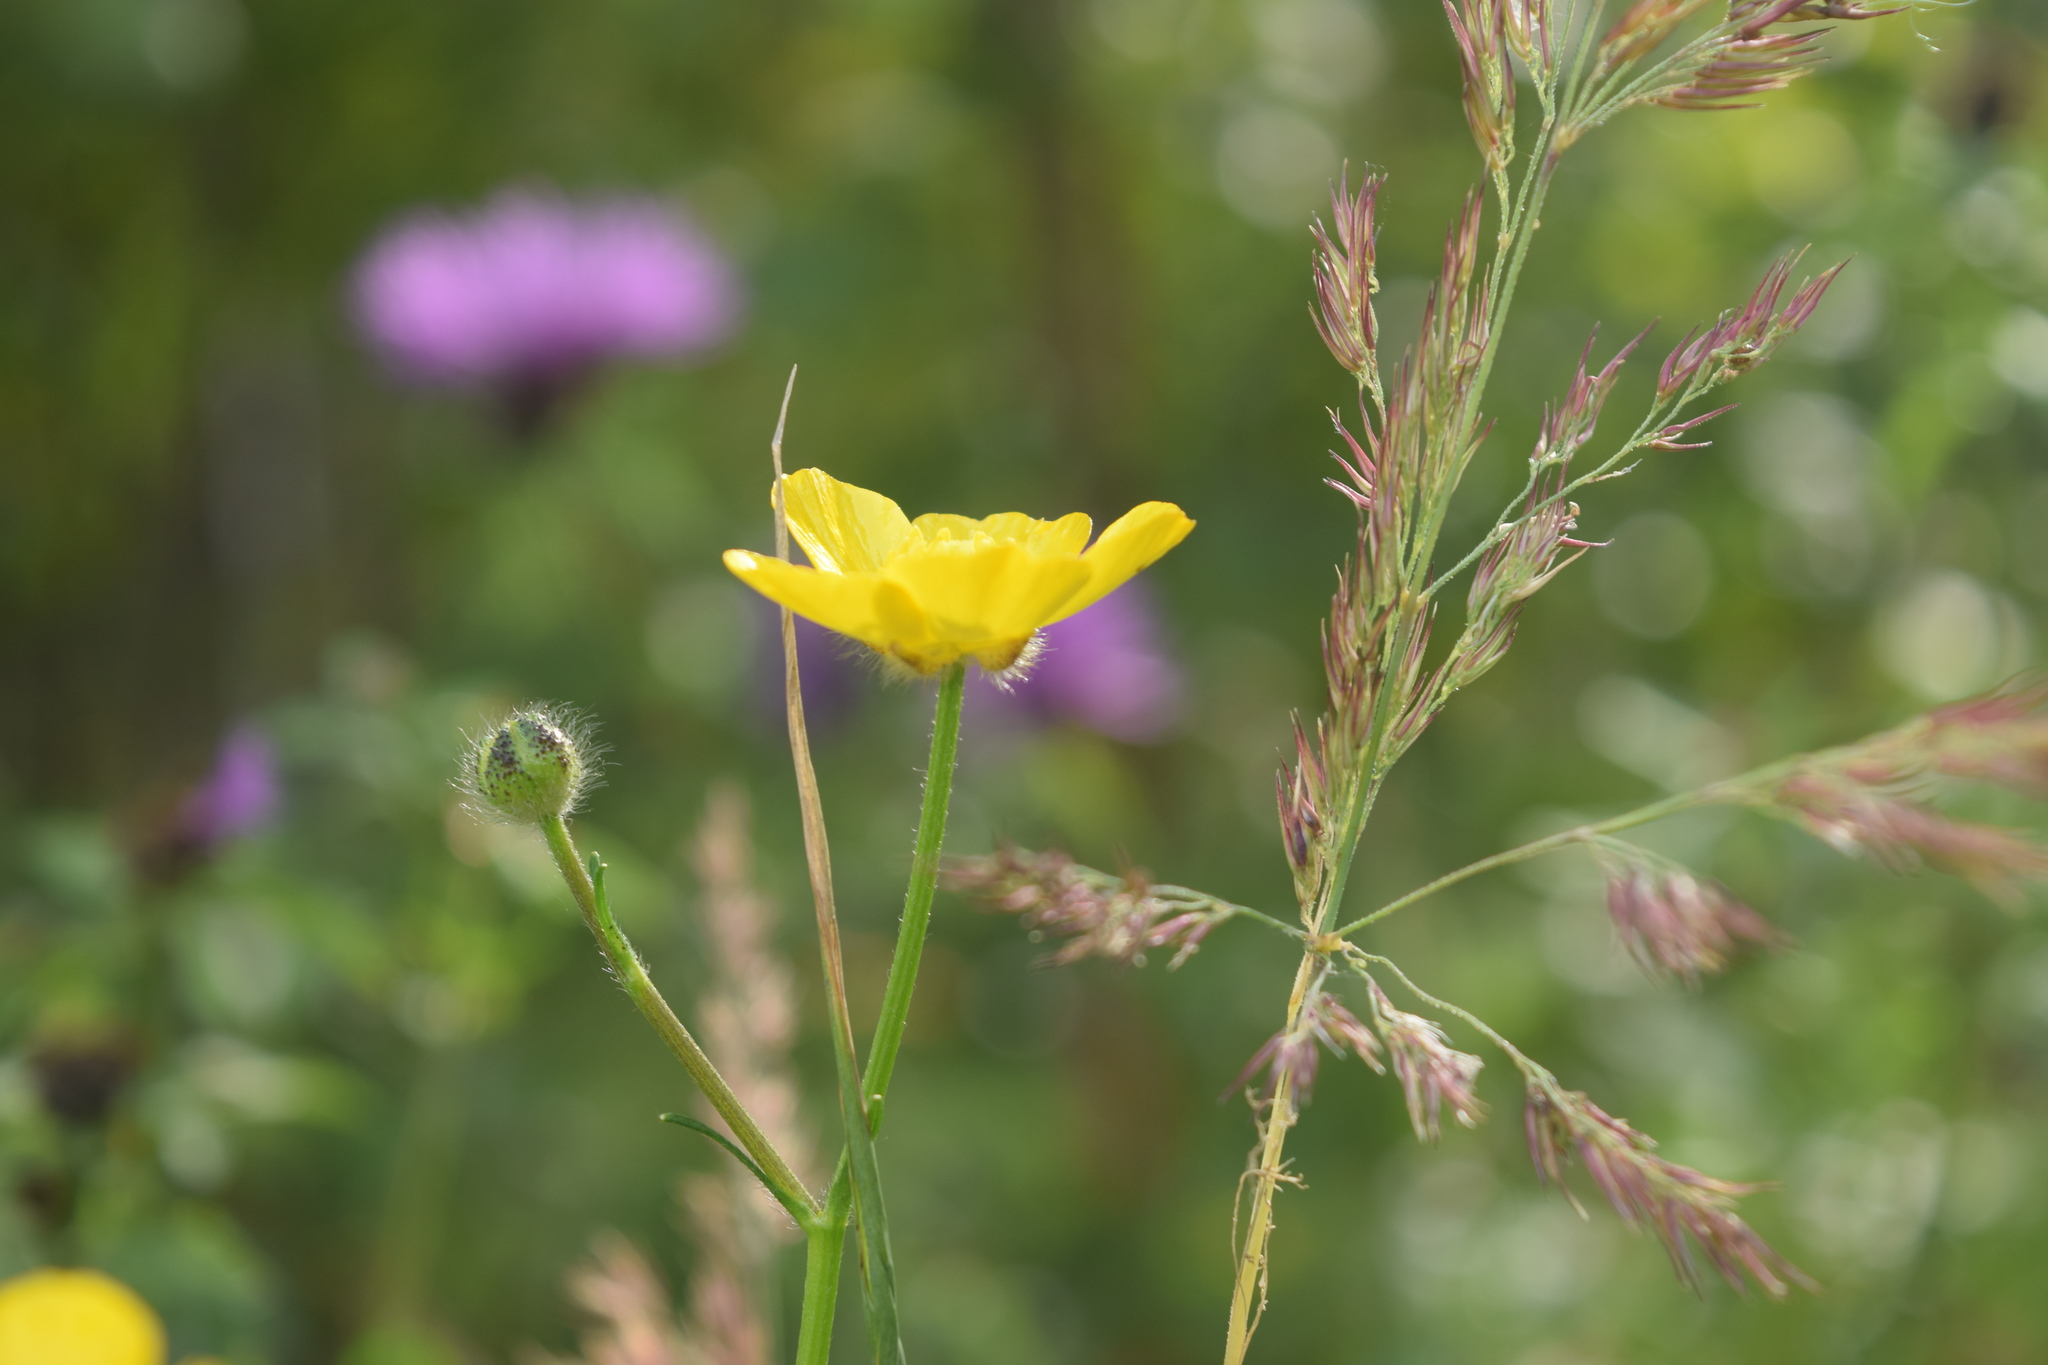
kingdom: Plantae
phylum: Tracheophyta
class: Magnoliopsida
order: Ranunculales
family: Ranunculaceae
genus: Ranunculus
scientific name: Ranunculus polyanthemos
